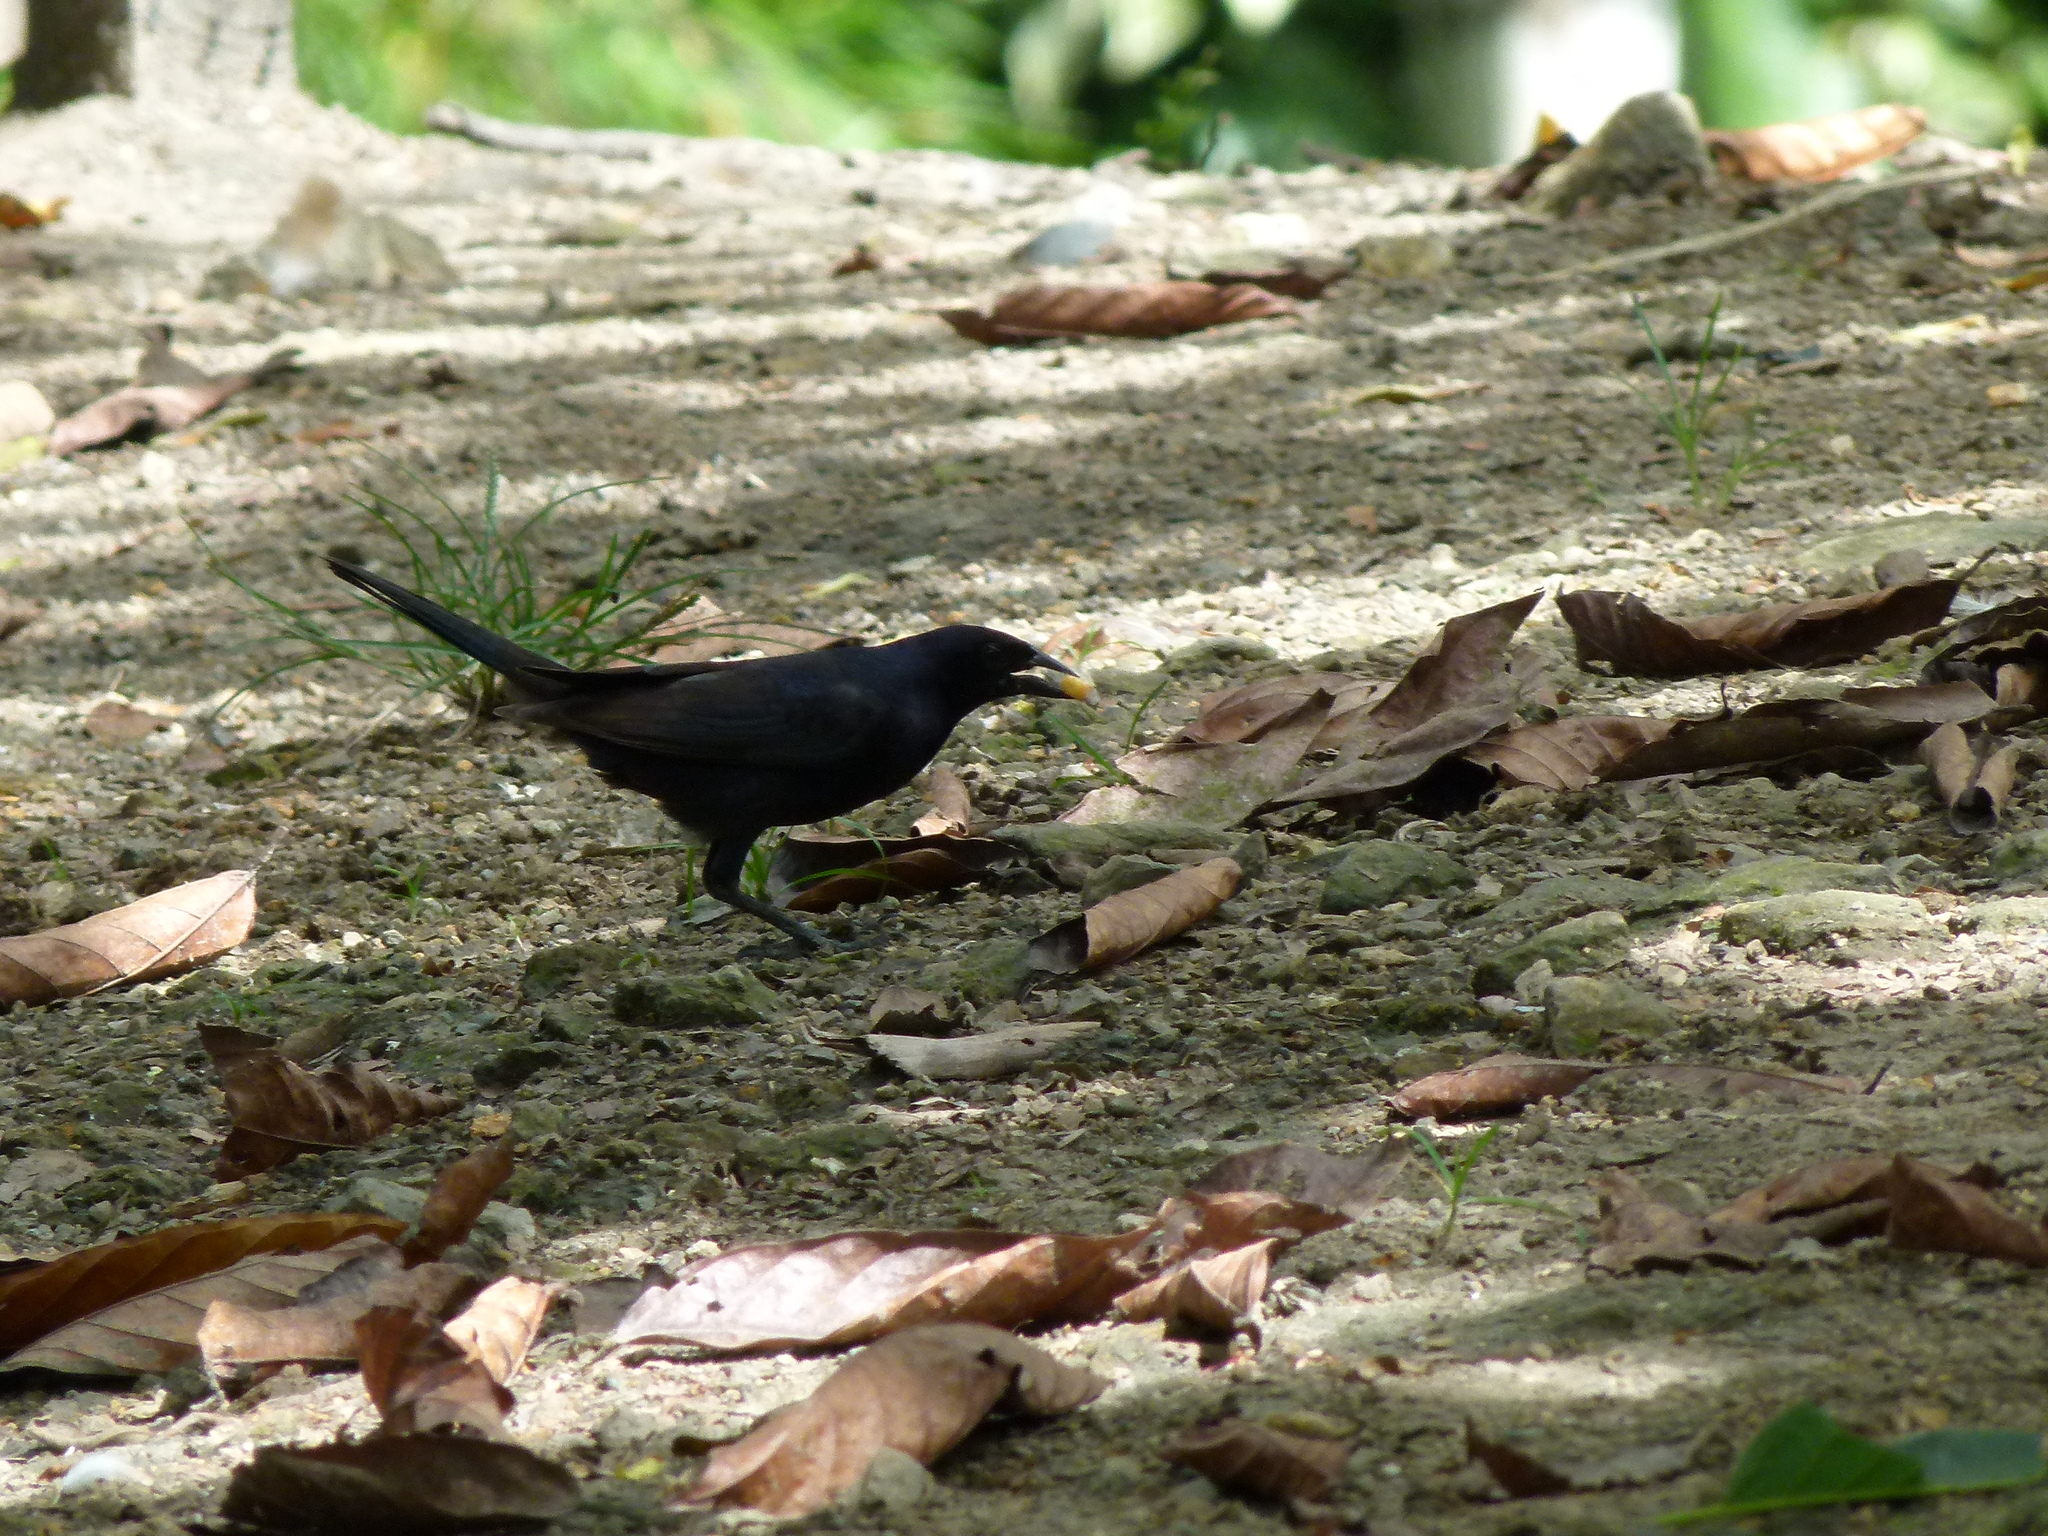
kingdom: Animalia
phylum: Chordata
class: Aves
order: Passeriformes
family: Icteridae
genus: Molothrus
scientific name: Molothrus bonariensis
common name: Shiny cowbird
